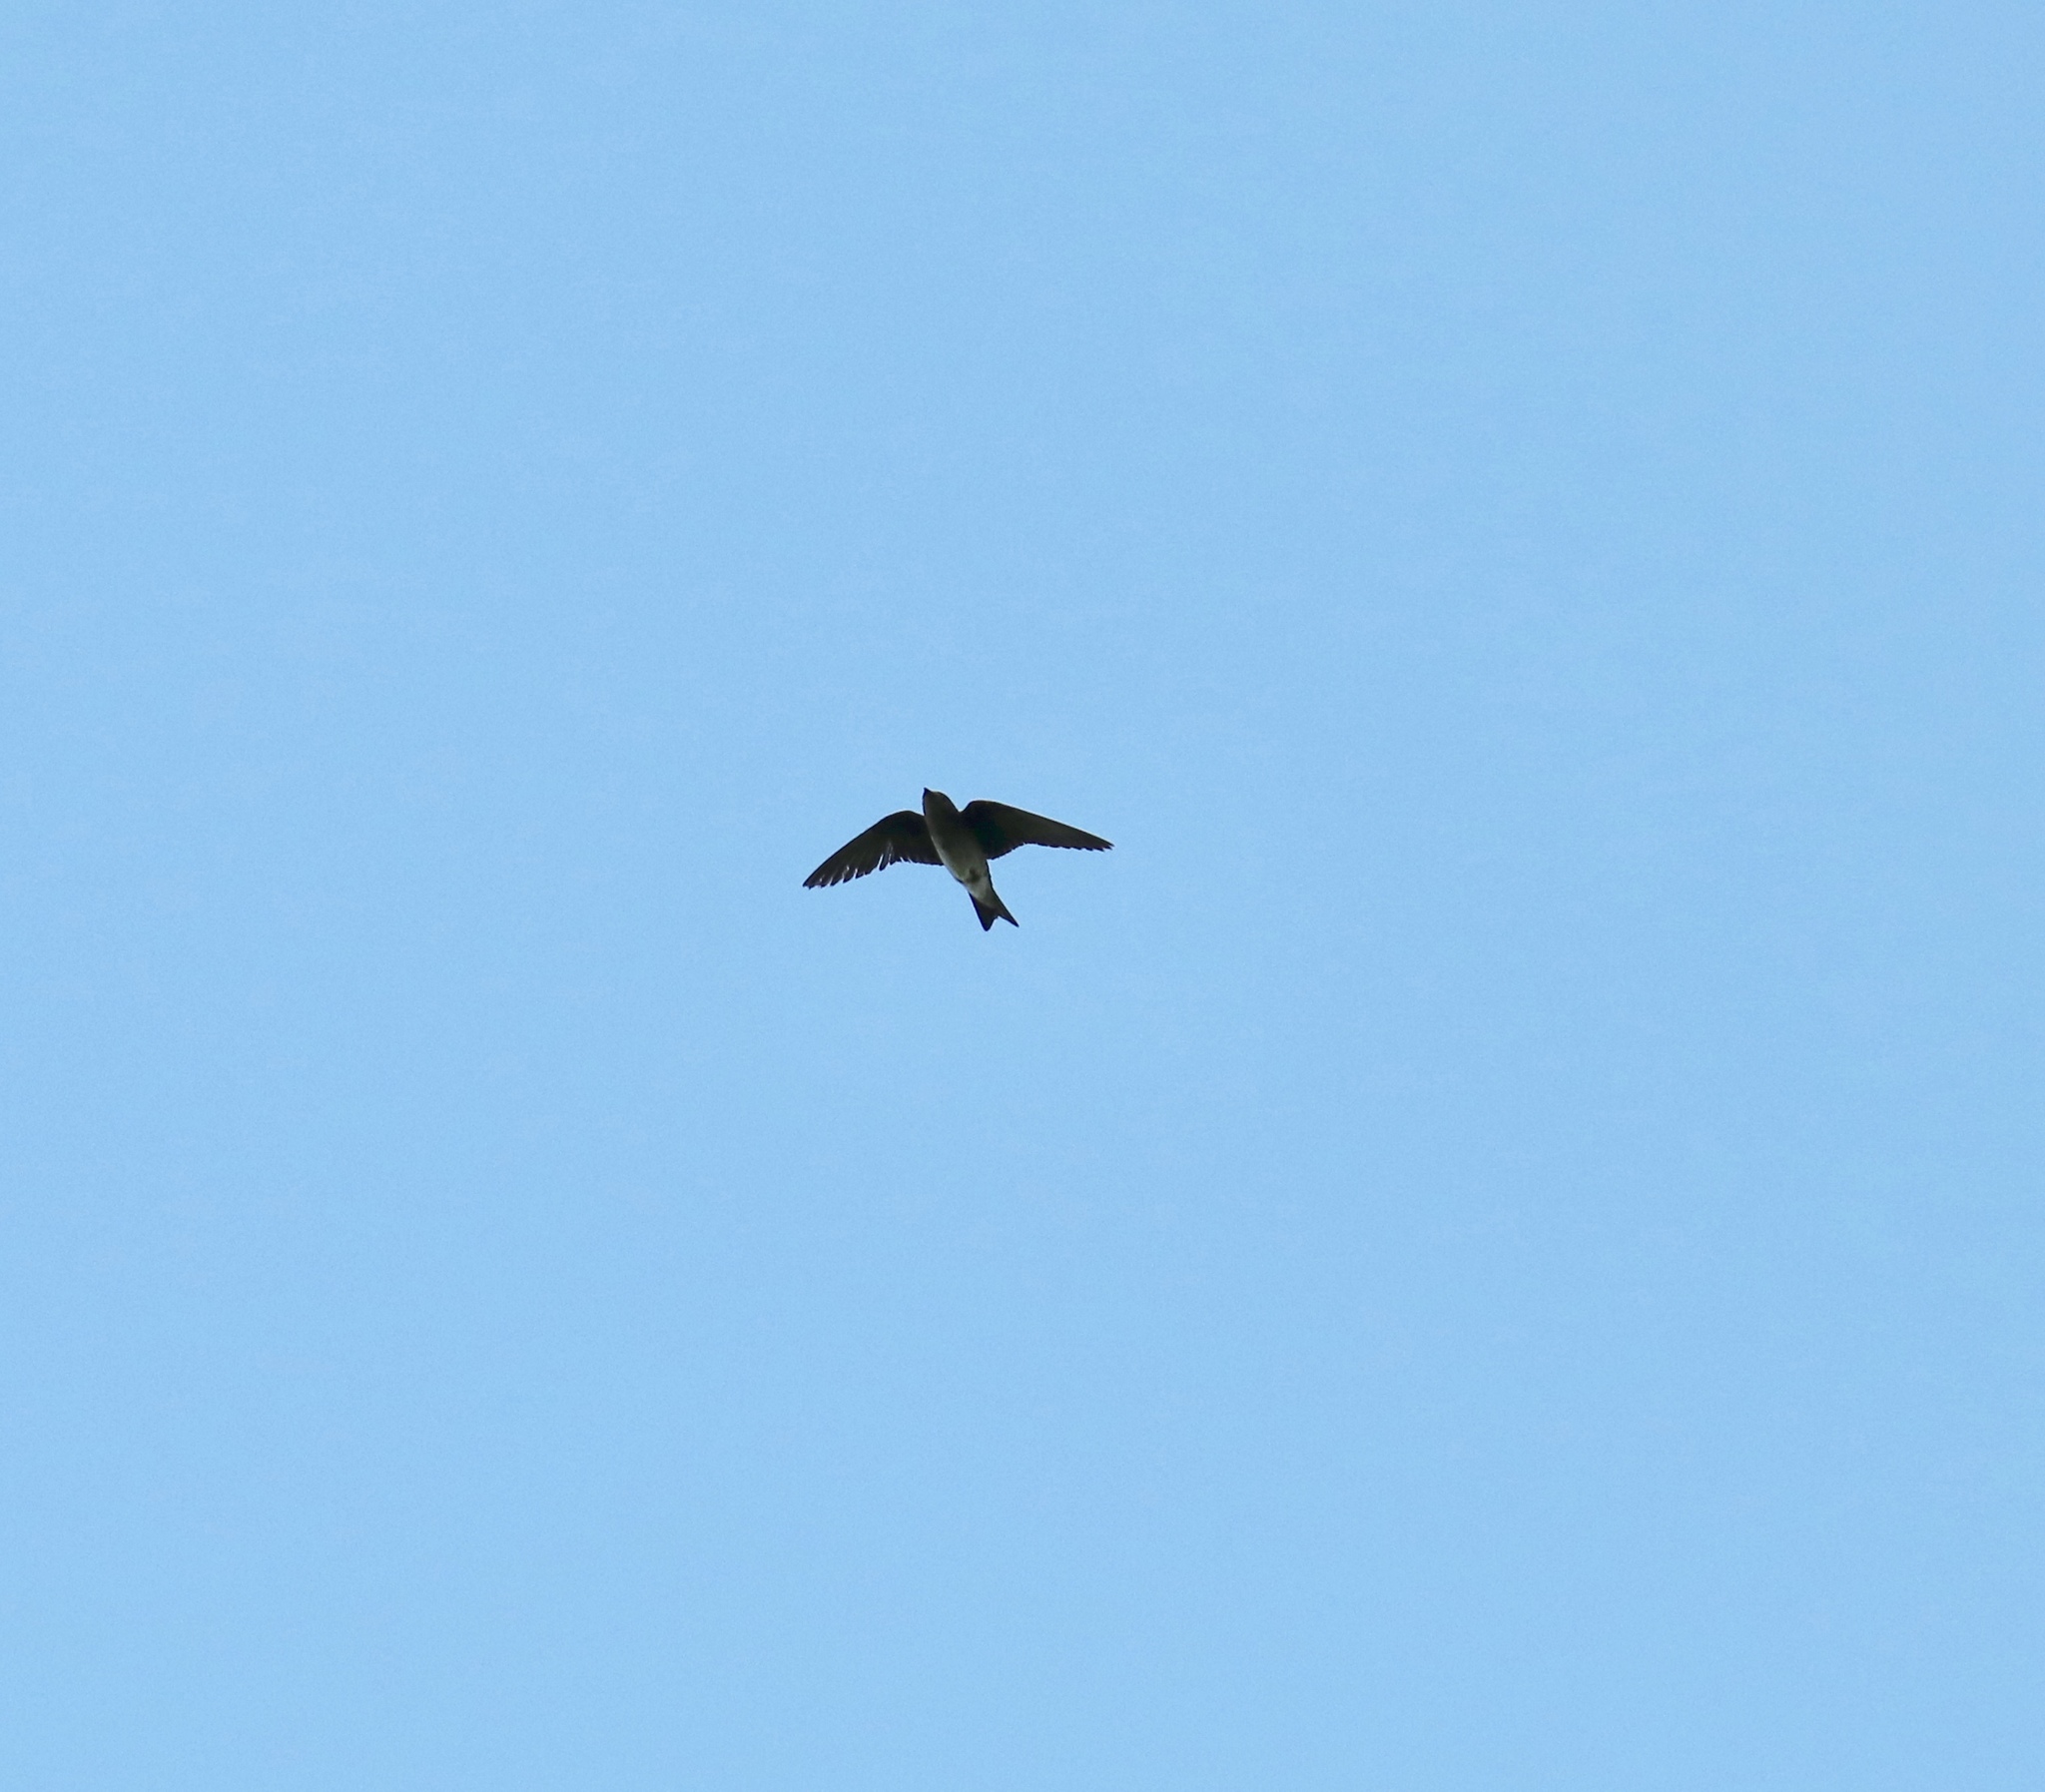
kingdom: Animalia
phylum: Chordata
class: Aves
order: Passeriformes
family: Hirundinidae
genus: Progne
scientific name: Progne chalybea
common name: Grey-breasted martin
